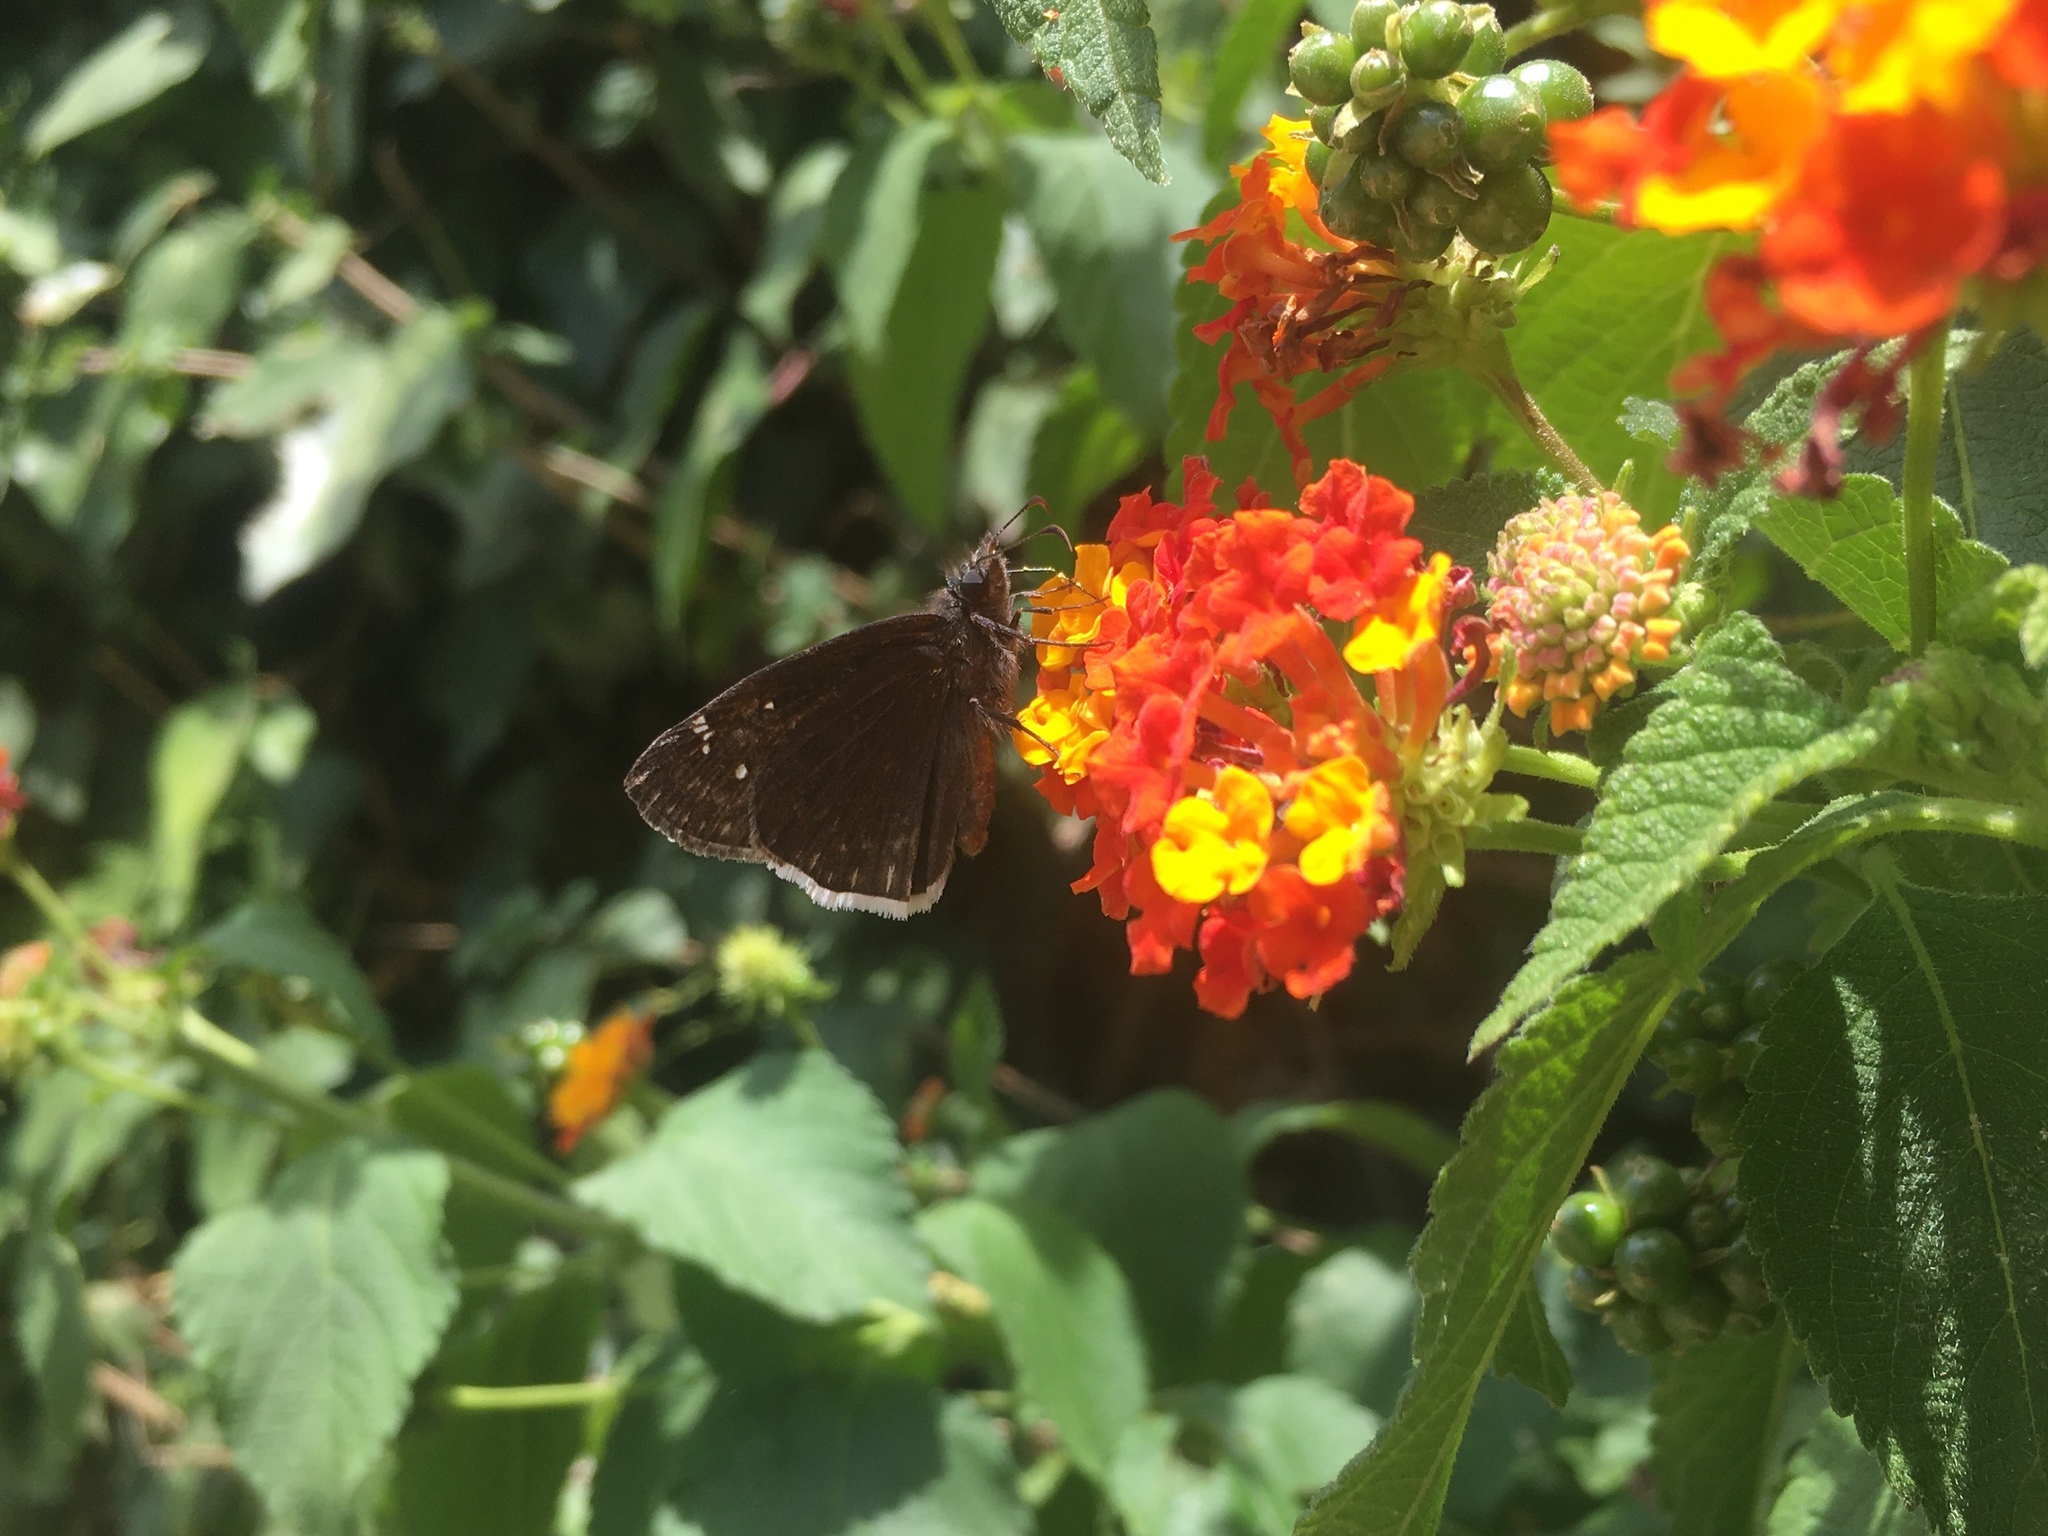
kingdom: Animalia
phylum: Arthropoda
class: Insecta
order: Lepidoptera
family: Hesperiidae
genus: Erynnis
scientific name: Erynnis funeralis
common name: Funereal duskywing
